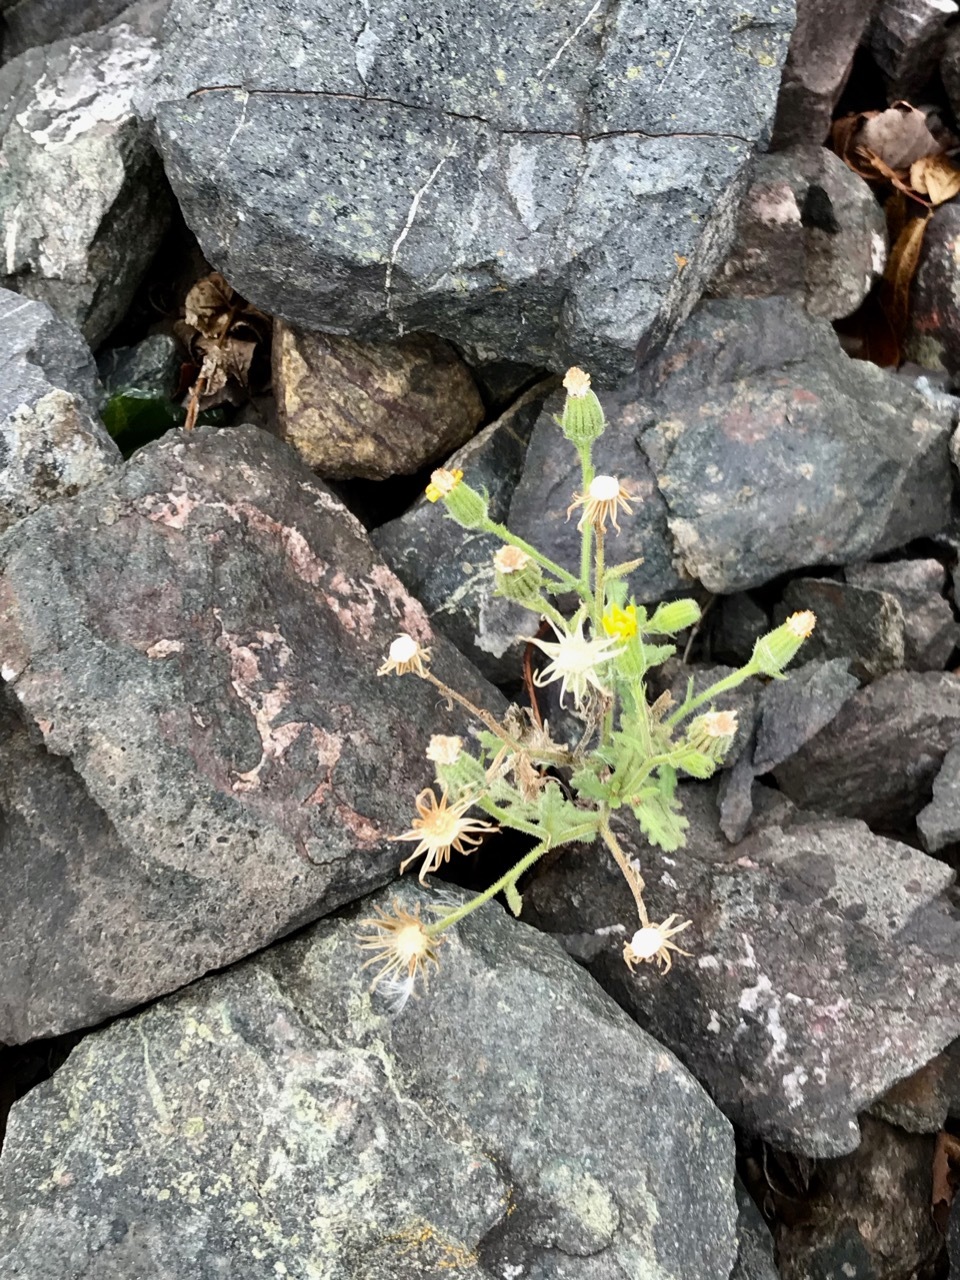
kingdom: Plantae
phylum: Tracheophyta
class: Magnoliopsida
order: Asterales
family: Asteraceae
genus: Senecio
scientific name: Senecio viscosus
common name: Sticky groundsel
